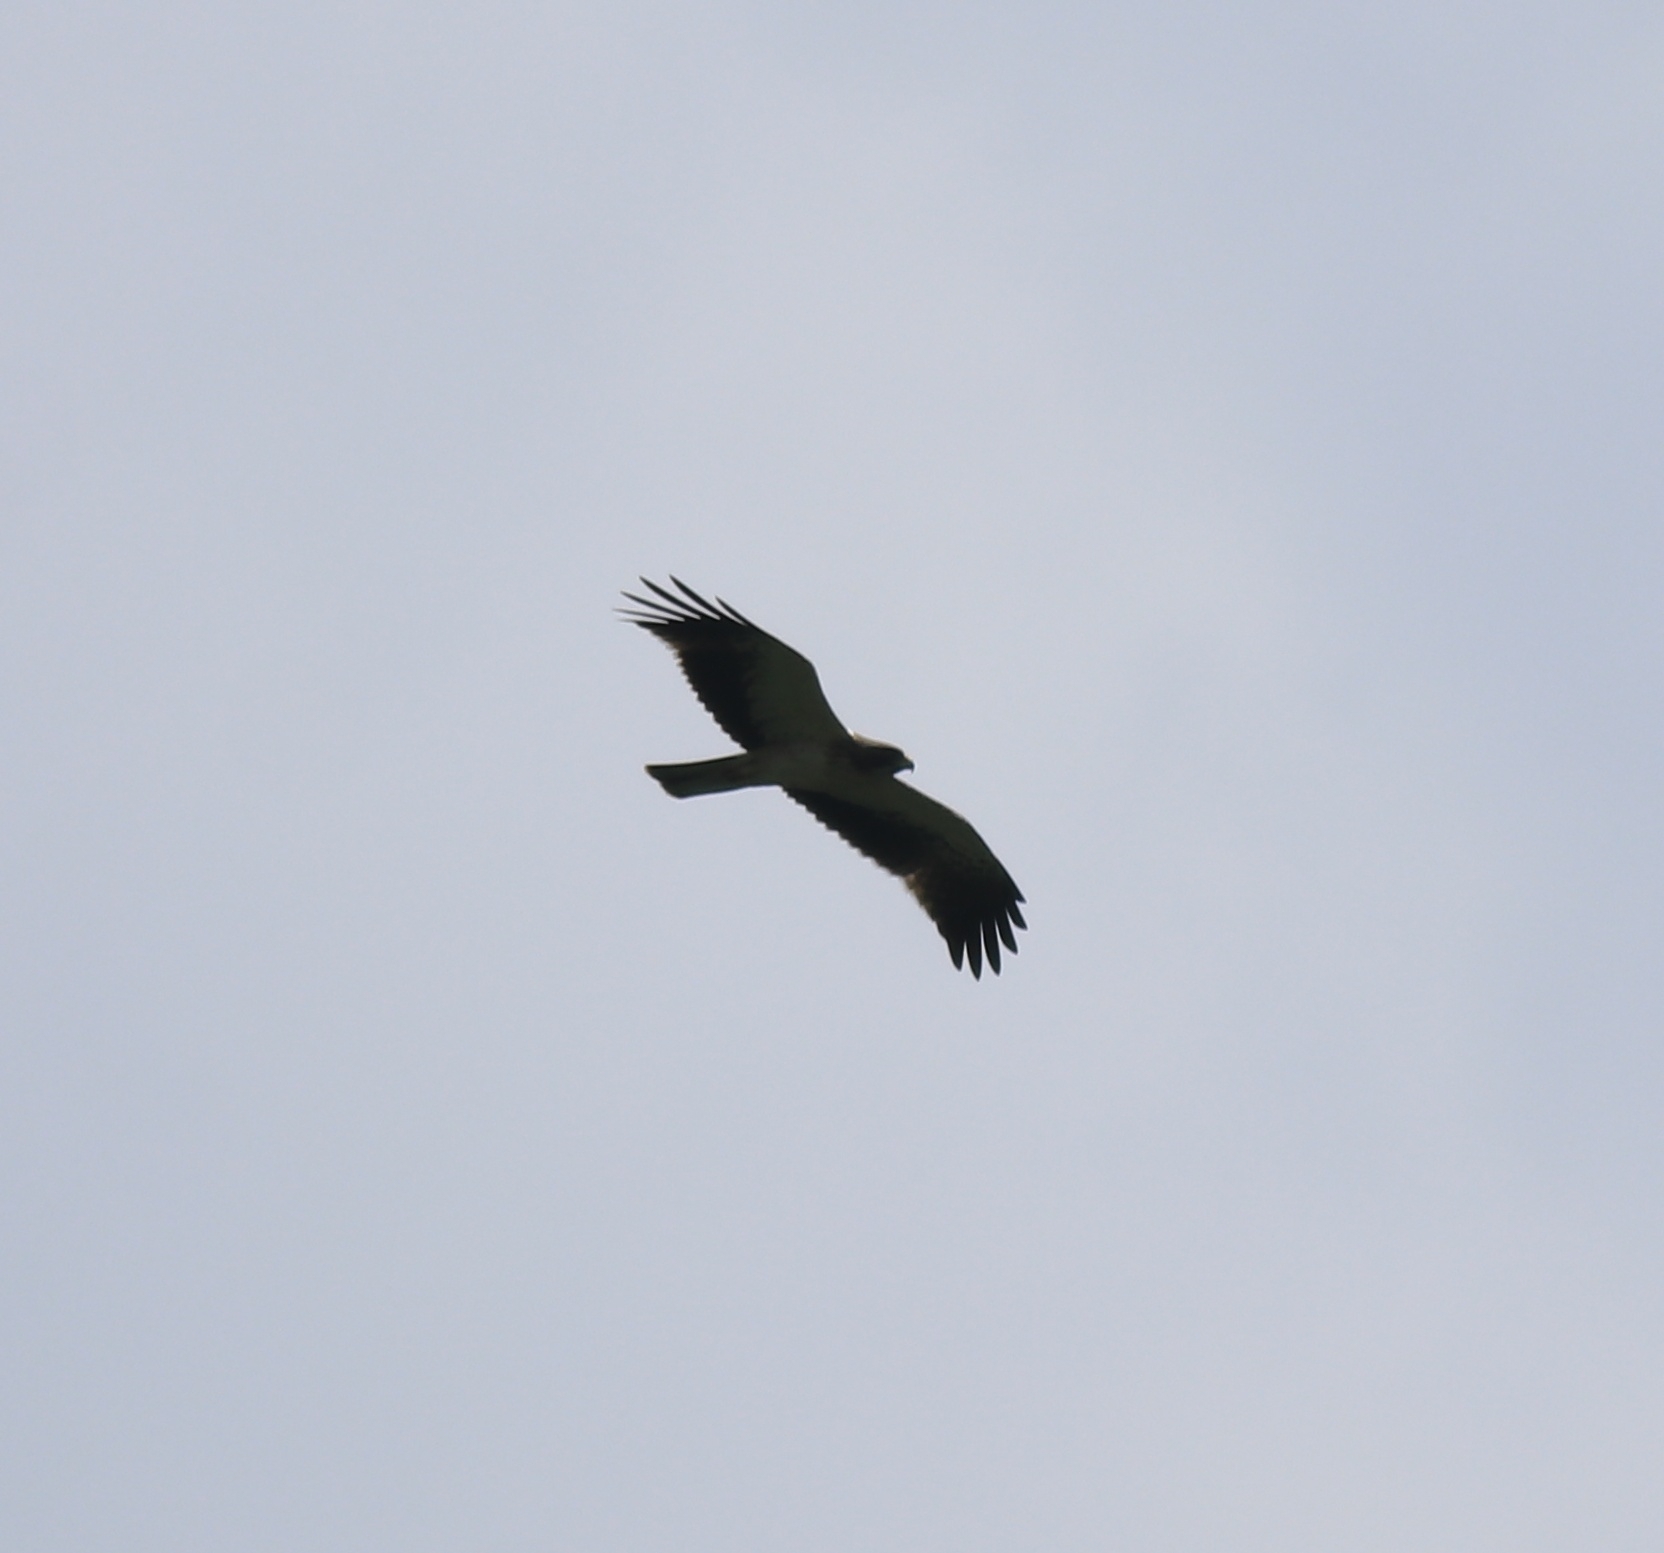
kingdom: Animalia
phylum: Chordata
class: Aves
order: Accipitriformes
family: Accipitridae
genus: Hieraaetus
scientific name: Hieraaetus pennatus
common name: Booted eagle
